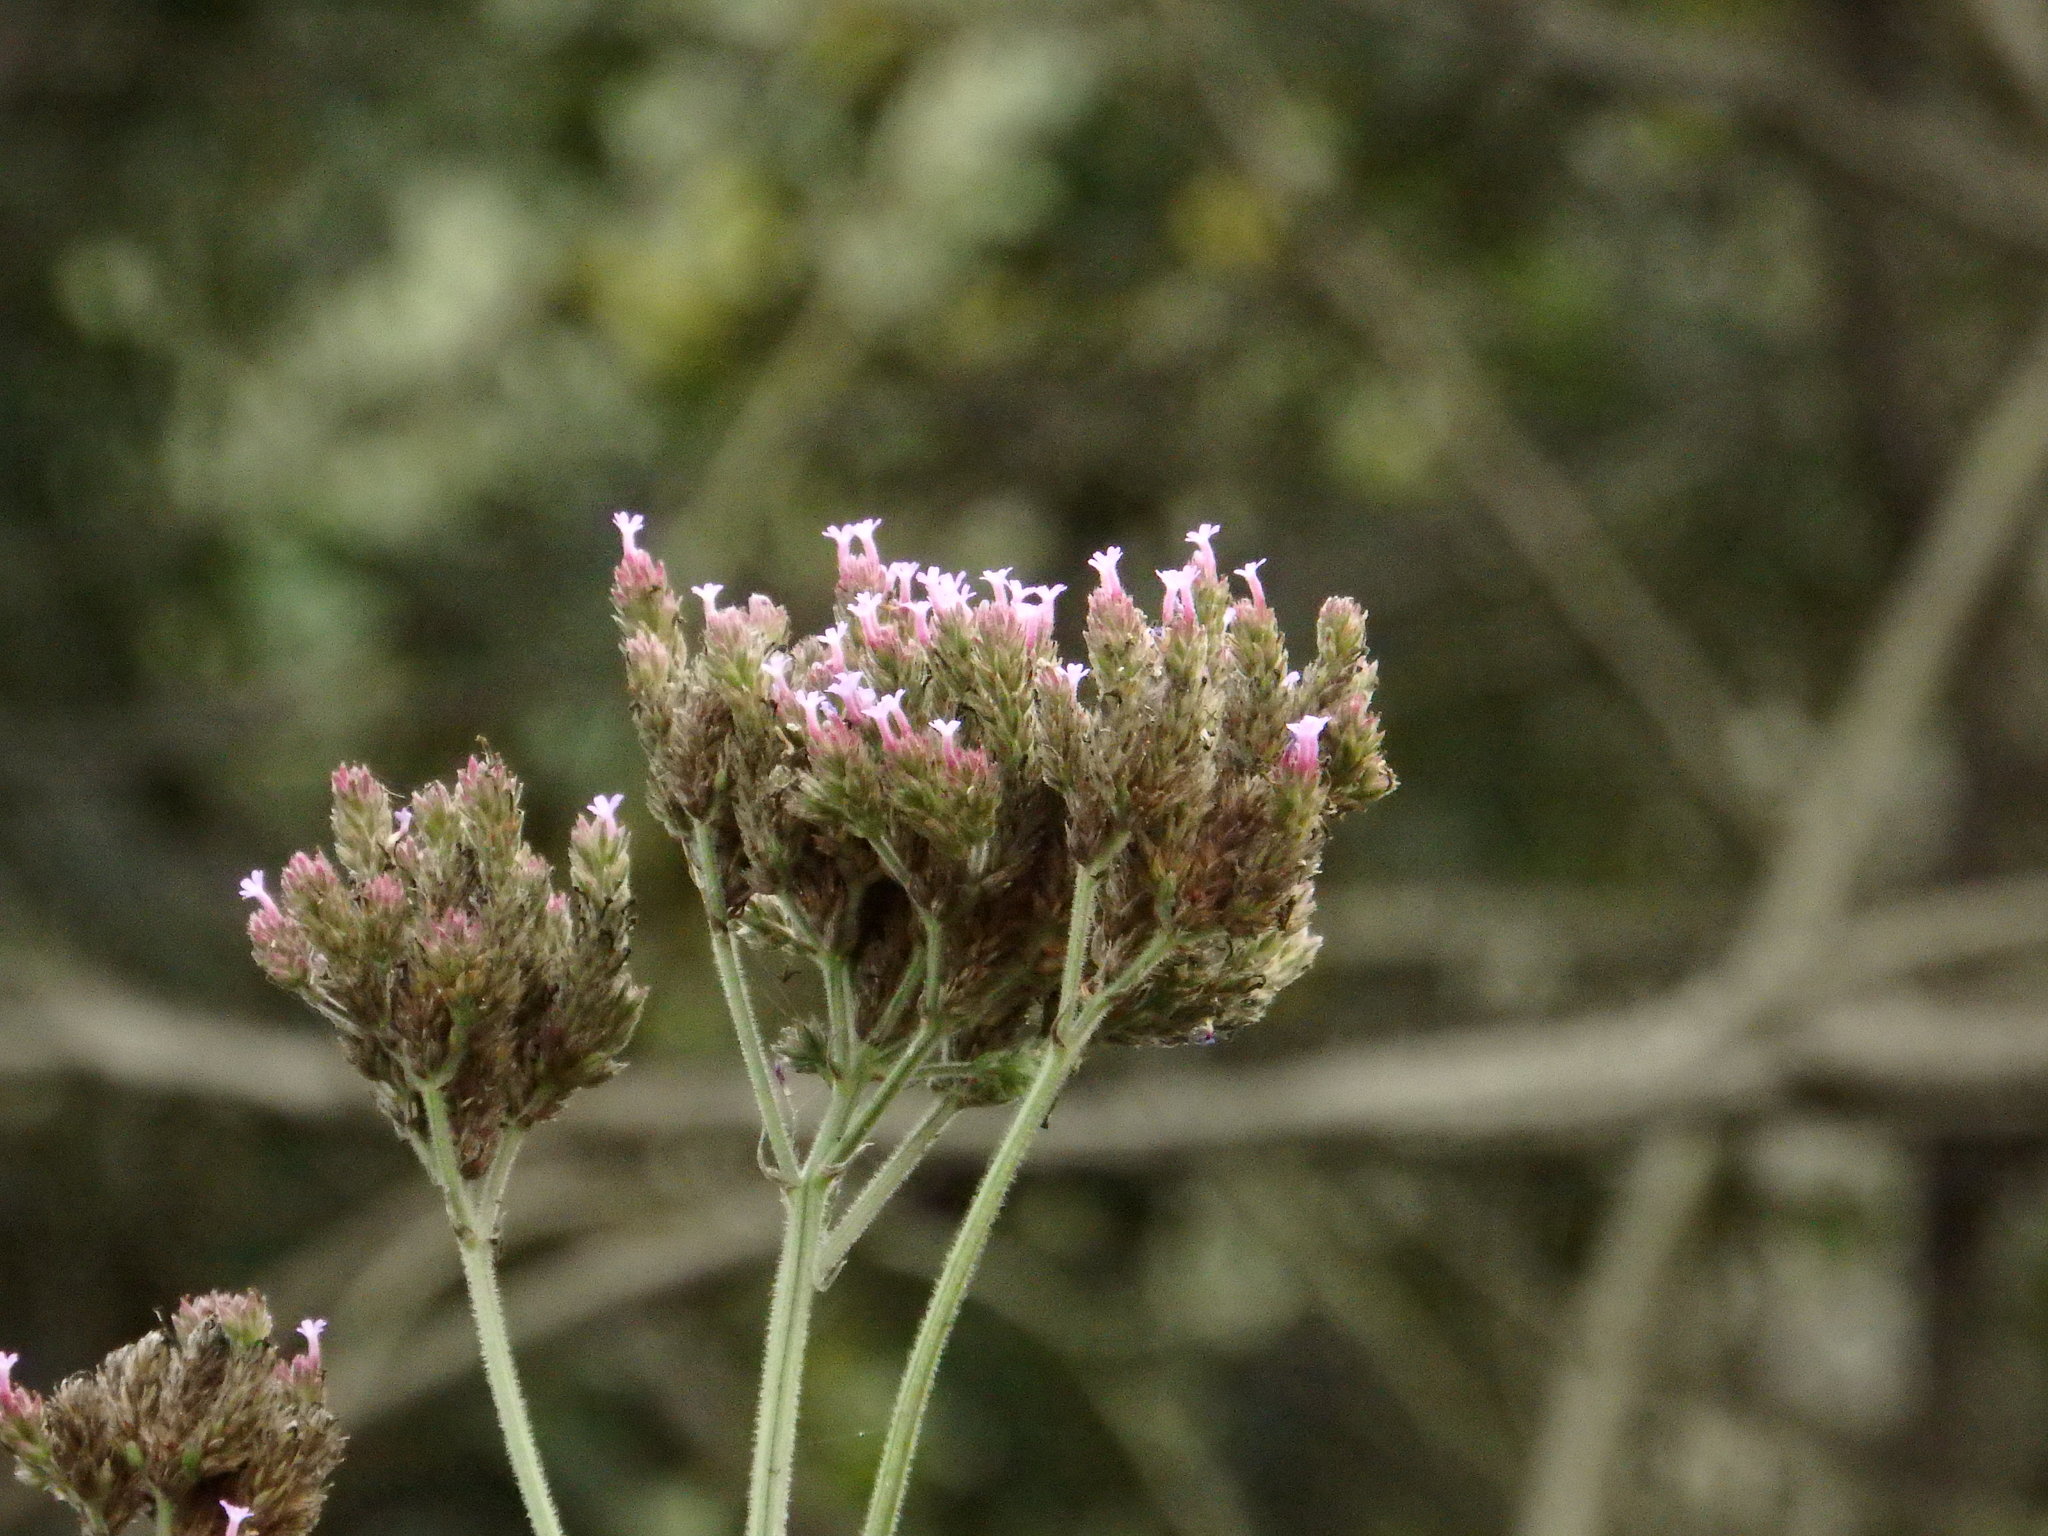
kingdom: Plantae
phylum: Tracheophyta
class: Magnoliopsida
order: Lamiales
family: Verbenaceae
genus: Verbena
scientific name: Verbena incompta
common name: Purpletop vervain
